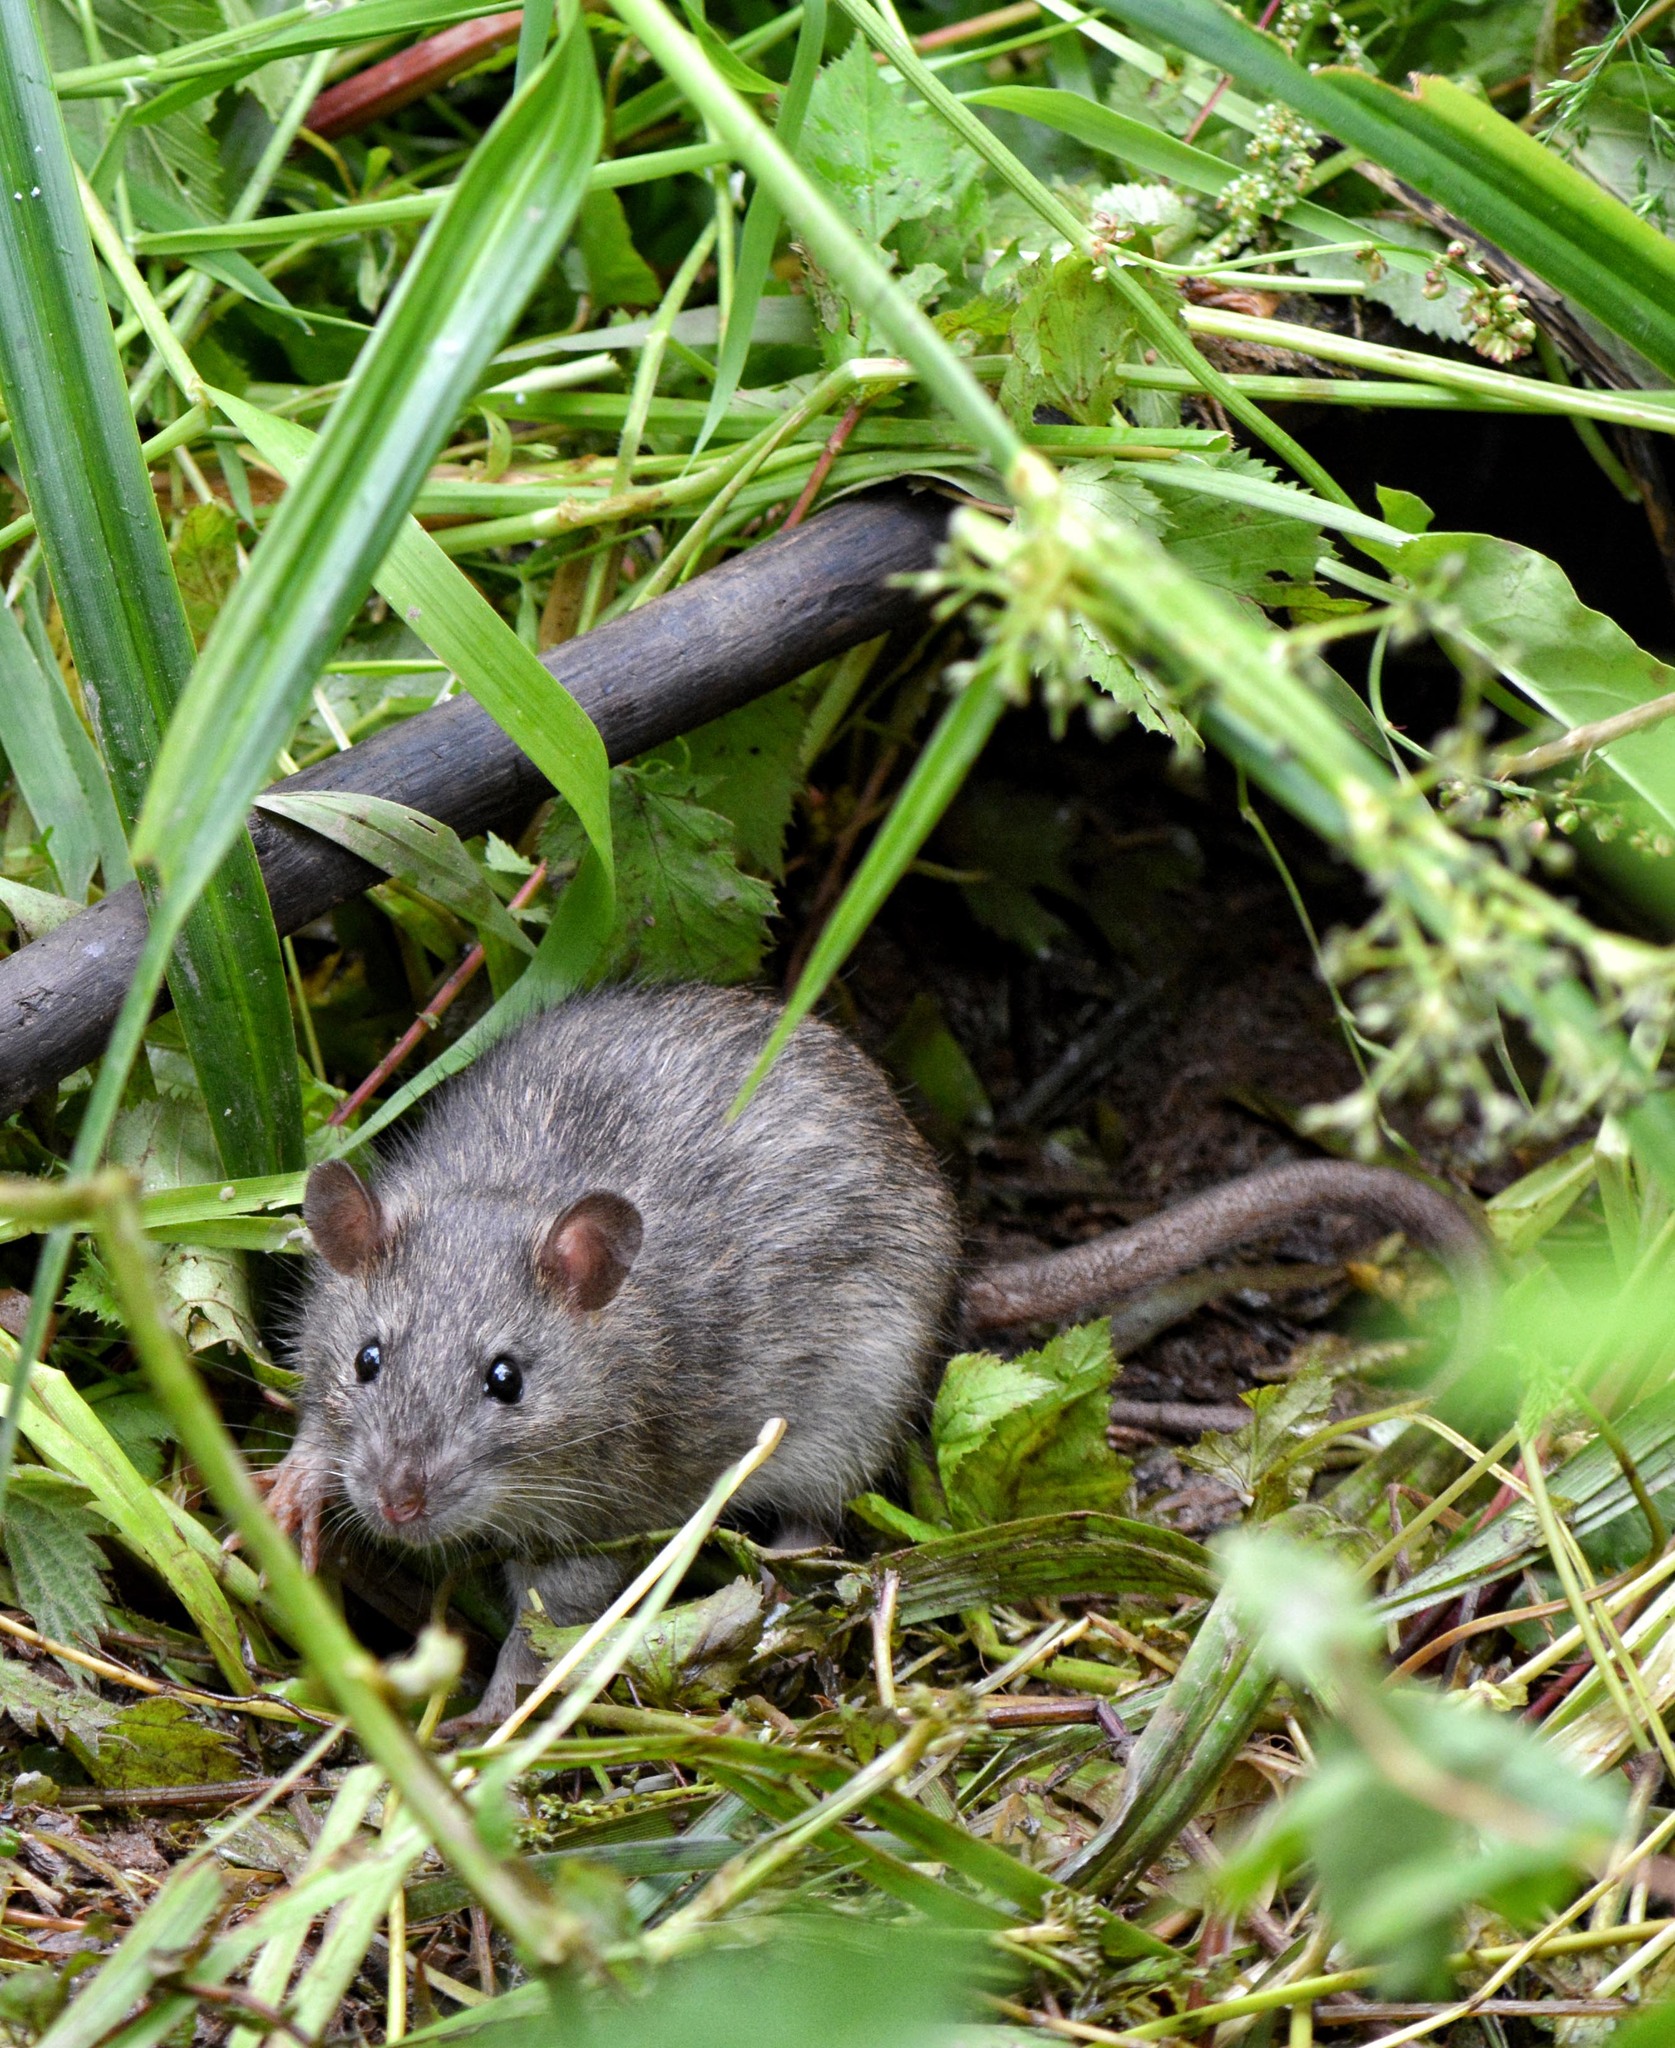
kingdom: Animalia
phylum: Chordata
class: Mammalia
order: Rodentia
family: Muridae
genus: Rattus
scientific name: Rattus norvegicus
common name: Brown rat
